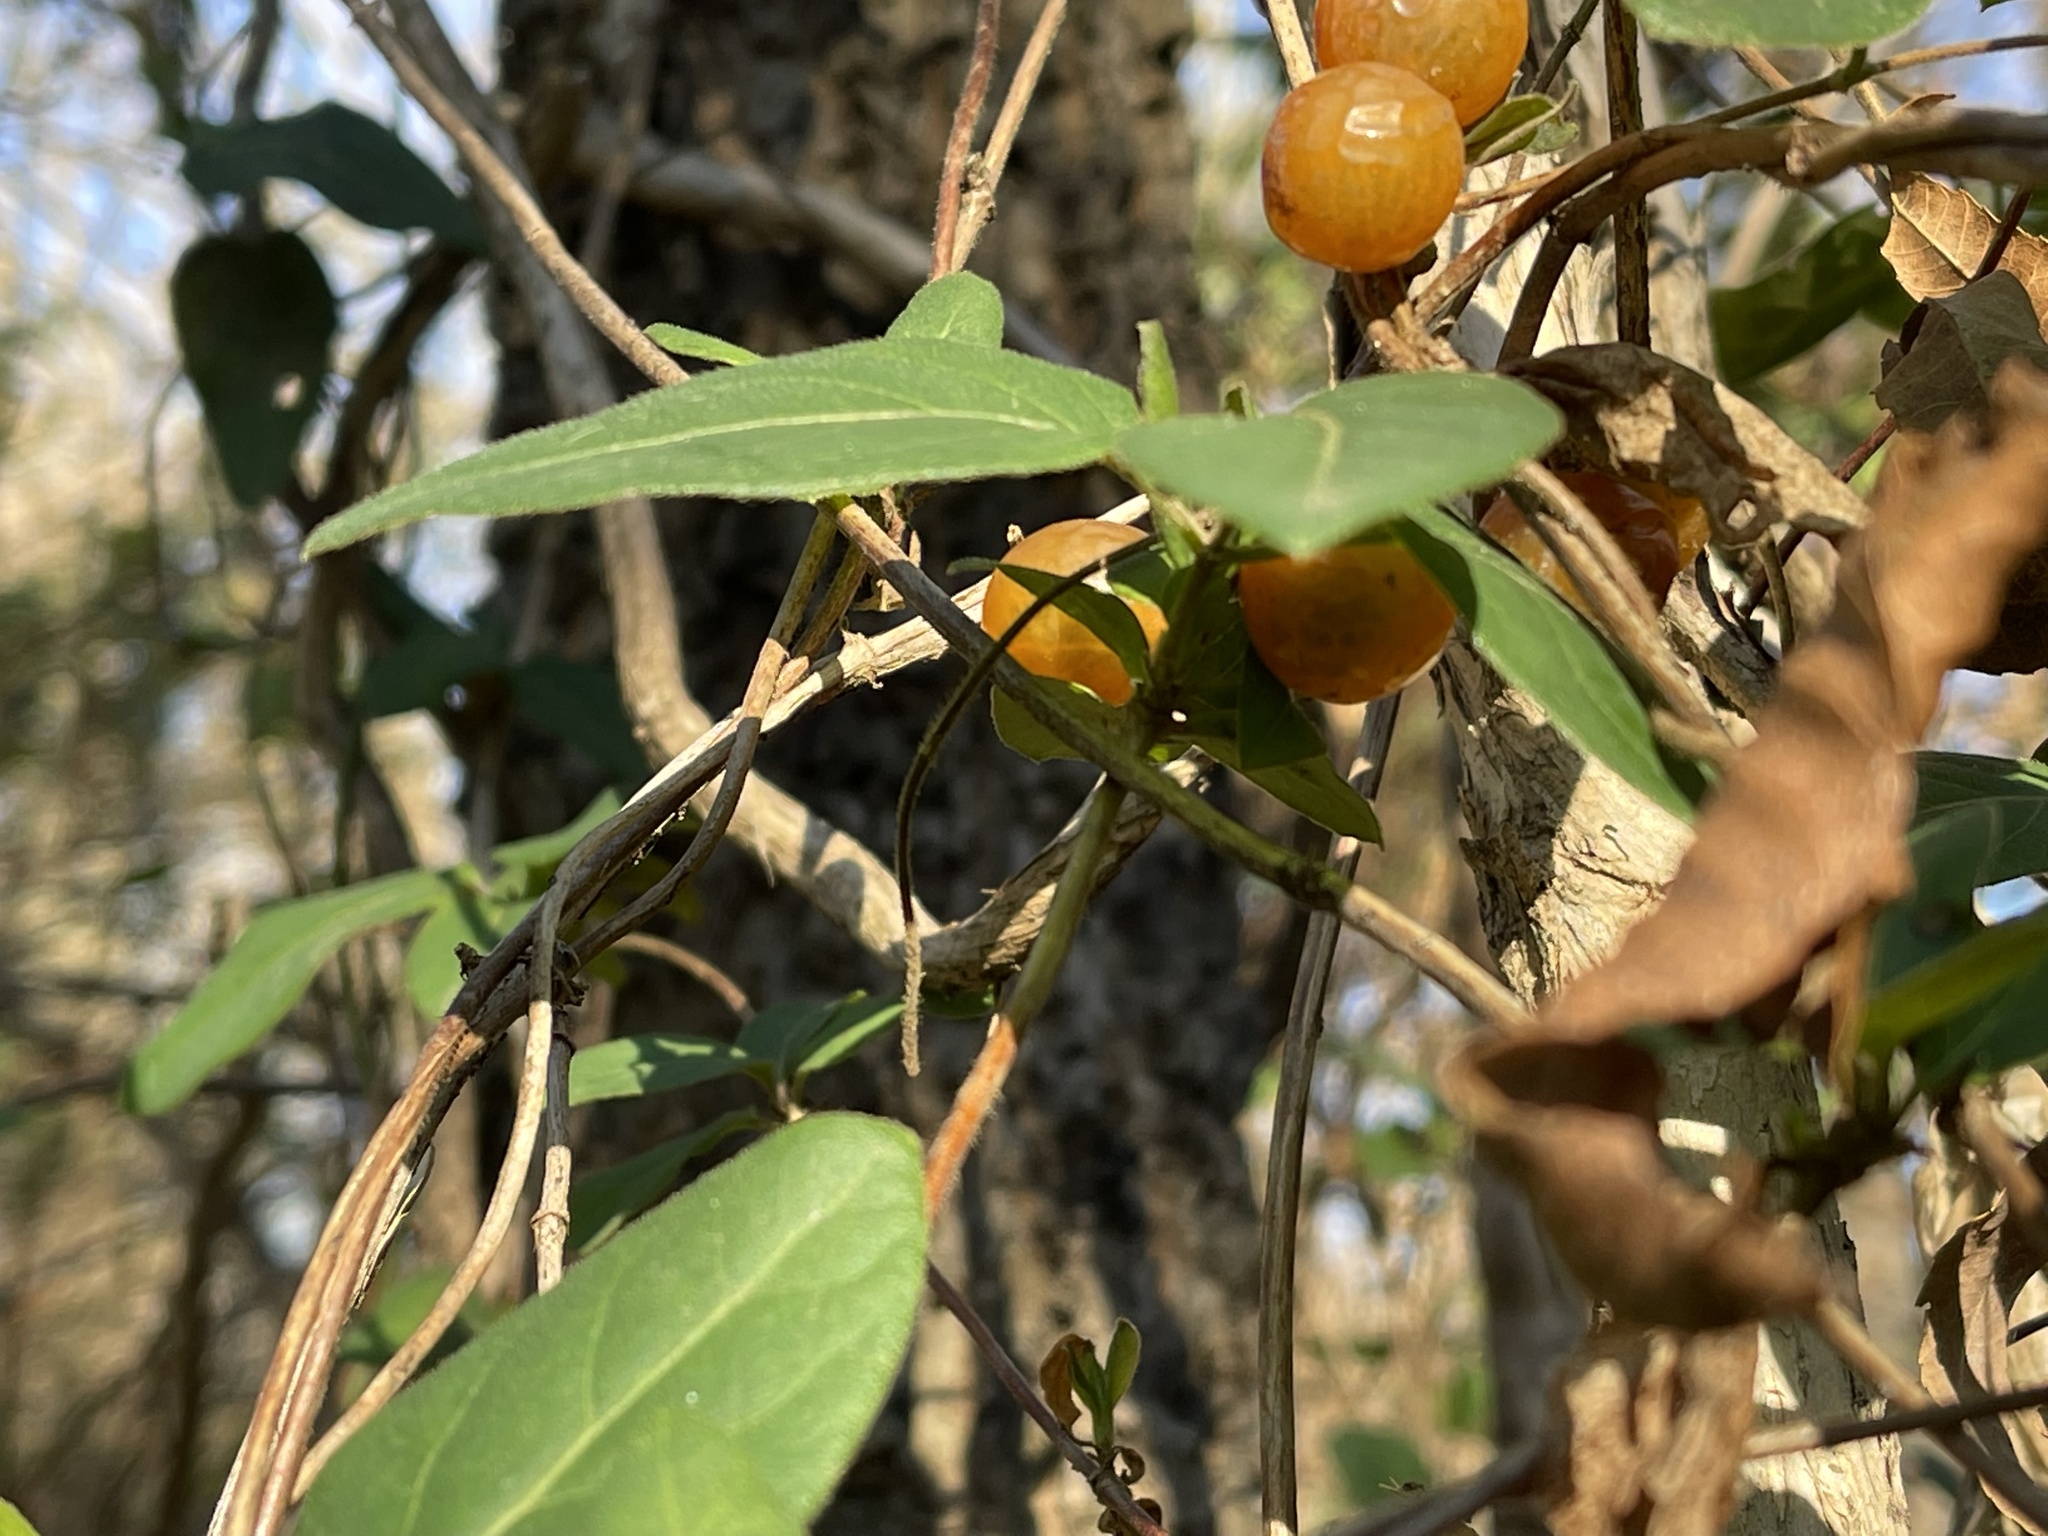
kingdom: Plantae
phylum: Tracheophyta
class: Magnoliopsida
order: Dipsacales
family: Caprifoliaceae
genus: Lonicera
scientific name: Lonicera japonica
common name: Japanese honeysuckle
